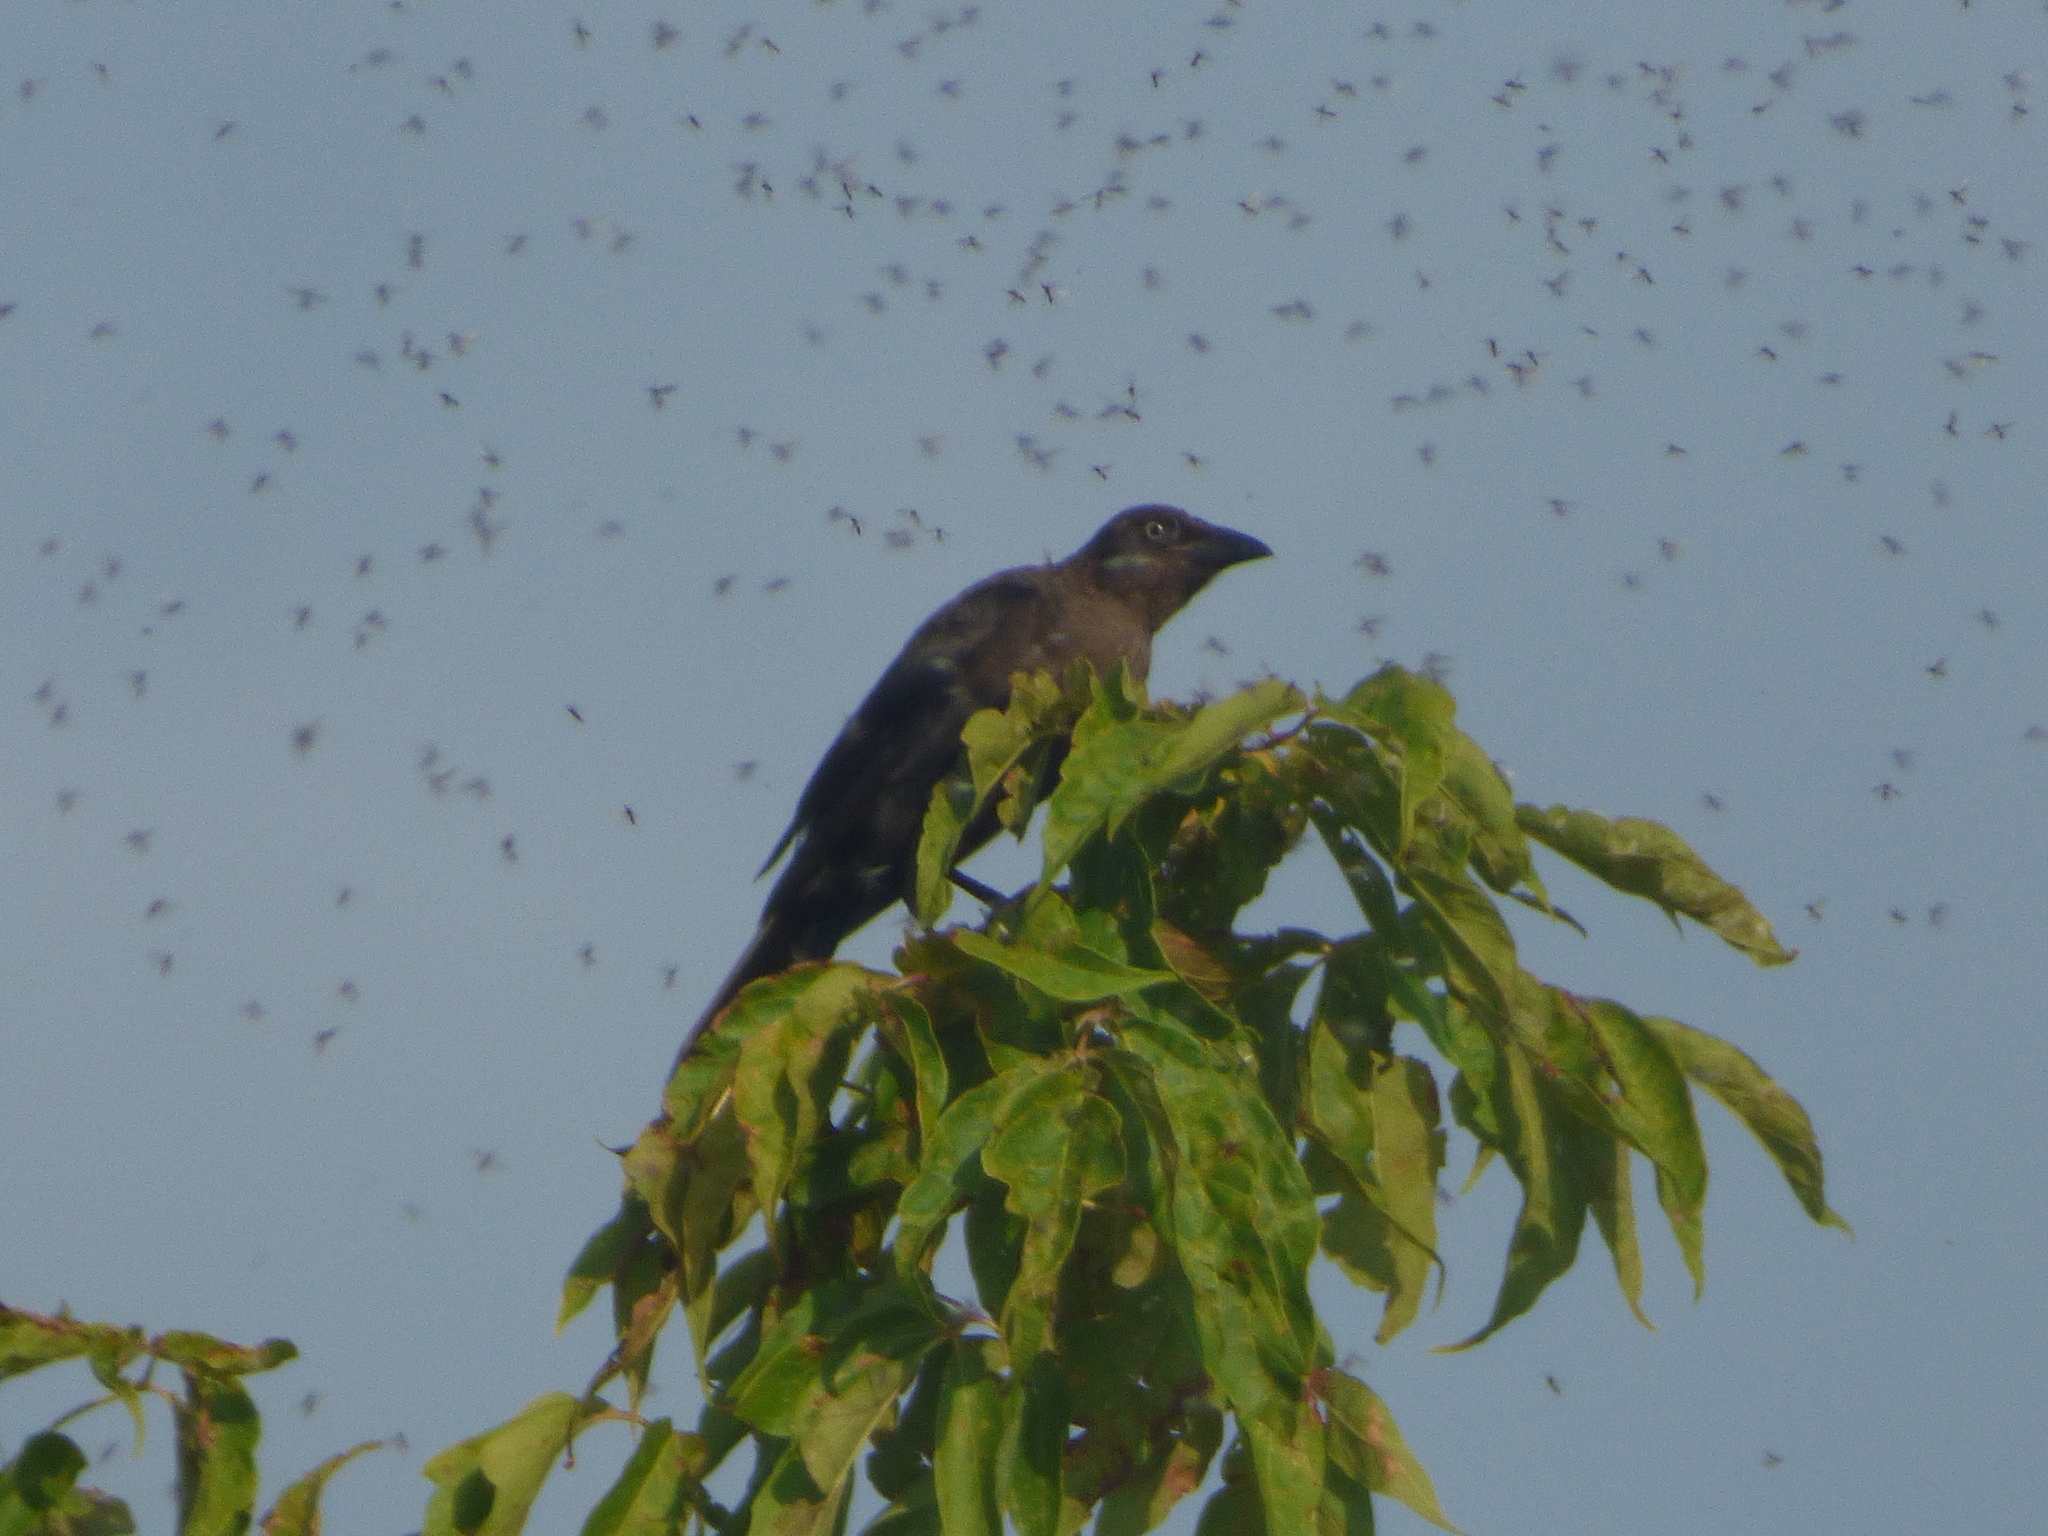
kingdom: Animalia
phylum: Chordata
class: Aves
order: Passeriformes
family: Icteridae
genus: Quiscalus
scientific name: Quiscalus quiscula
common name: Common grackle
